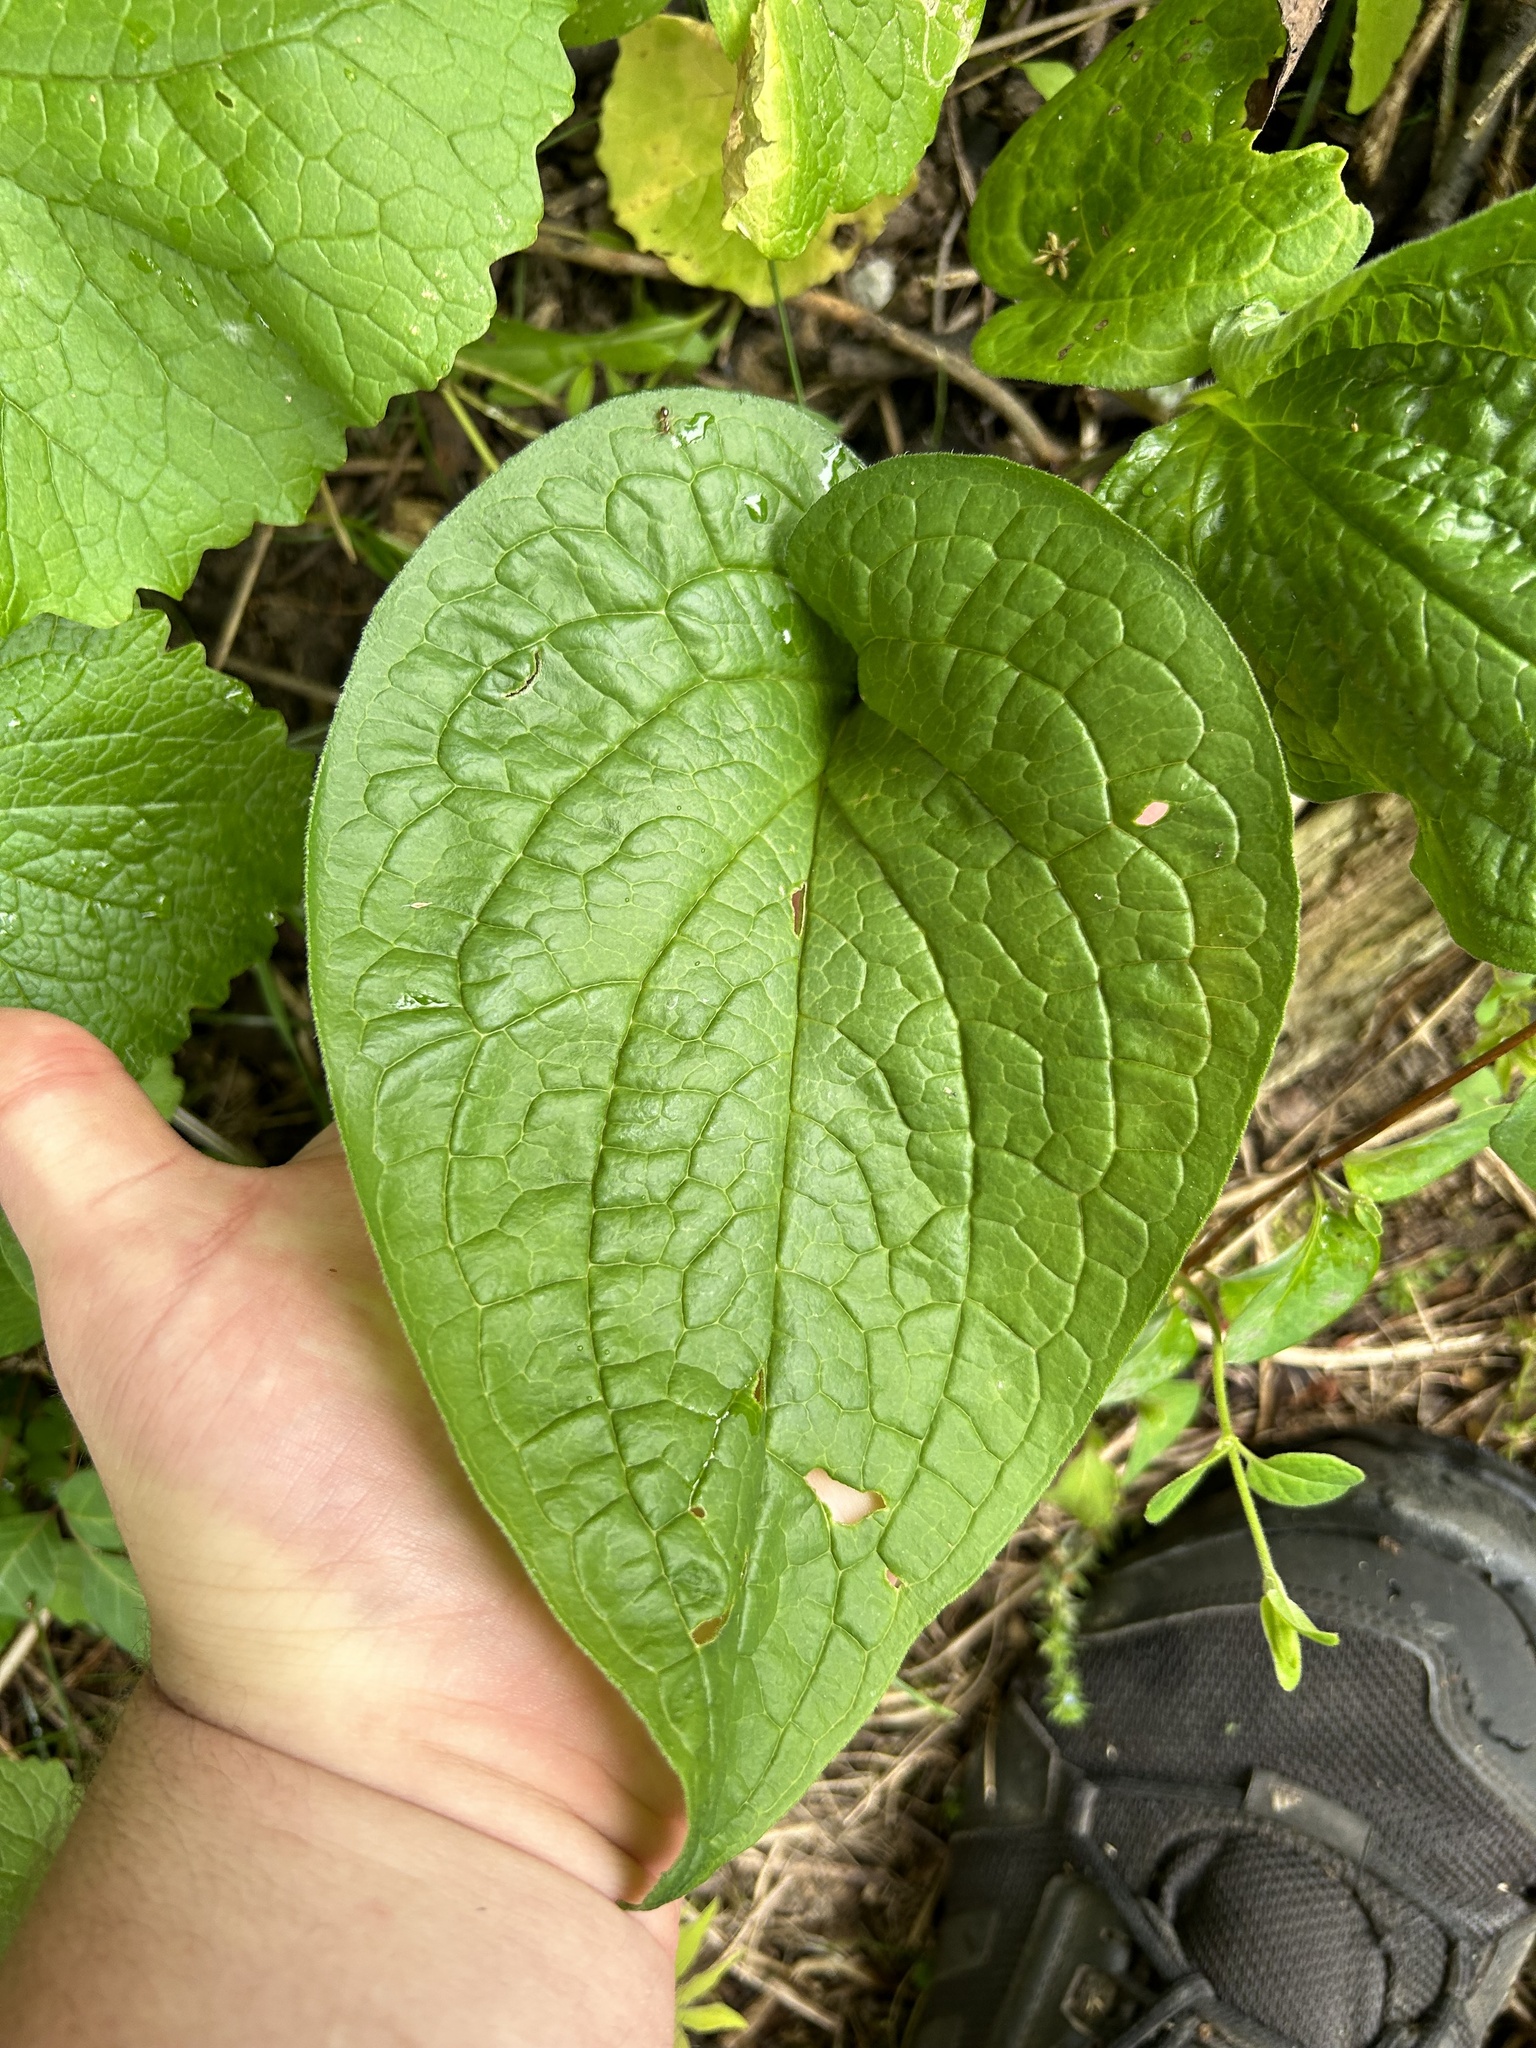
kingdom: Plantae
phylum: Tracheophyta
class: Magnoliopsida
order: Boraginales
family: Boraginaceae
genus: Hackelia
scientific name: Hackelia virginiana
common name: Beggar's-lice
